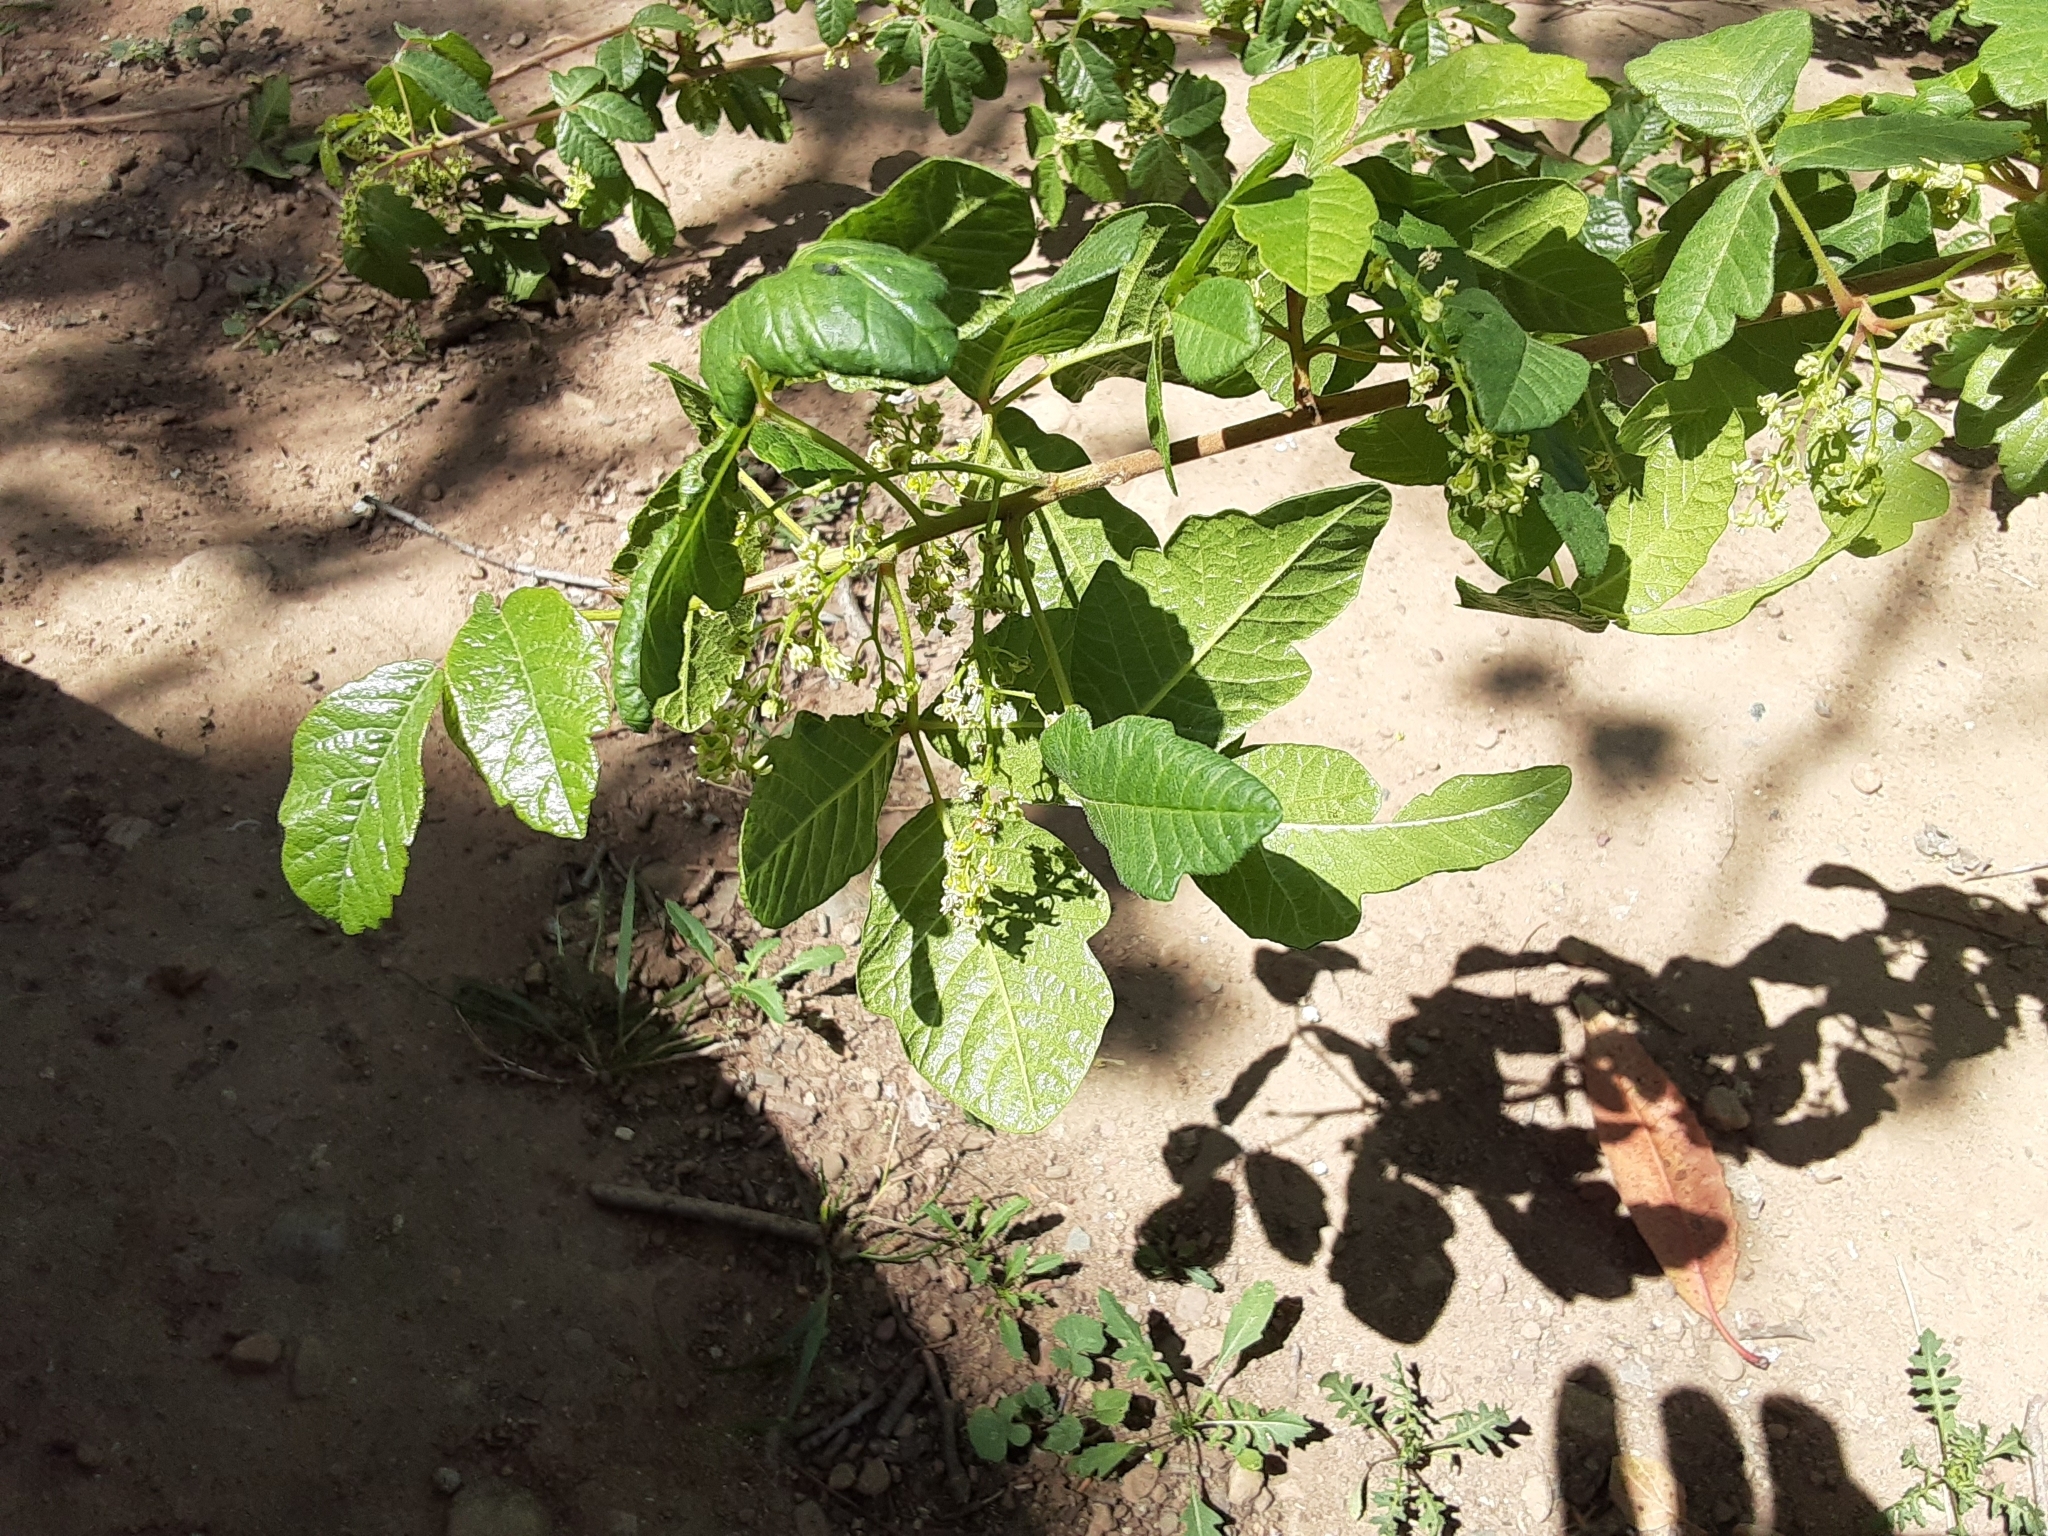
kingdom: Plantae
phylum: Tracheophyta
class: Magnoliopsida
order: Sapindales
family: Anacardiaceae
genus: Toxicodendron
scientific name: Toxicodendron diversilobum
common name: Pacific poison-oak
